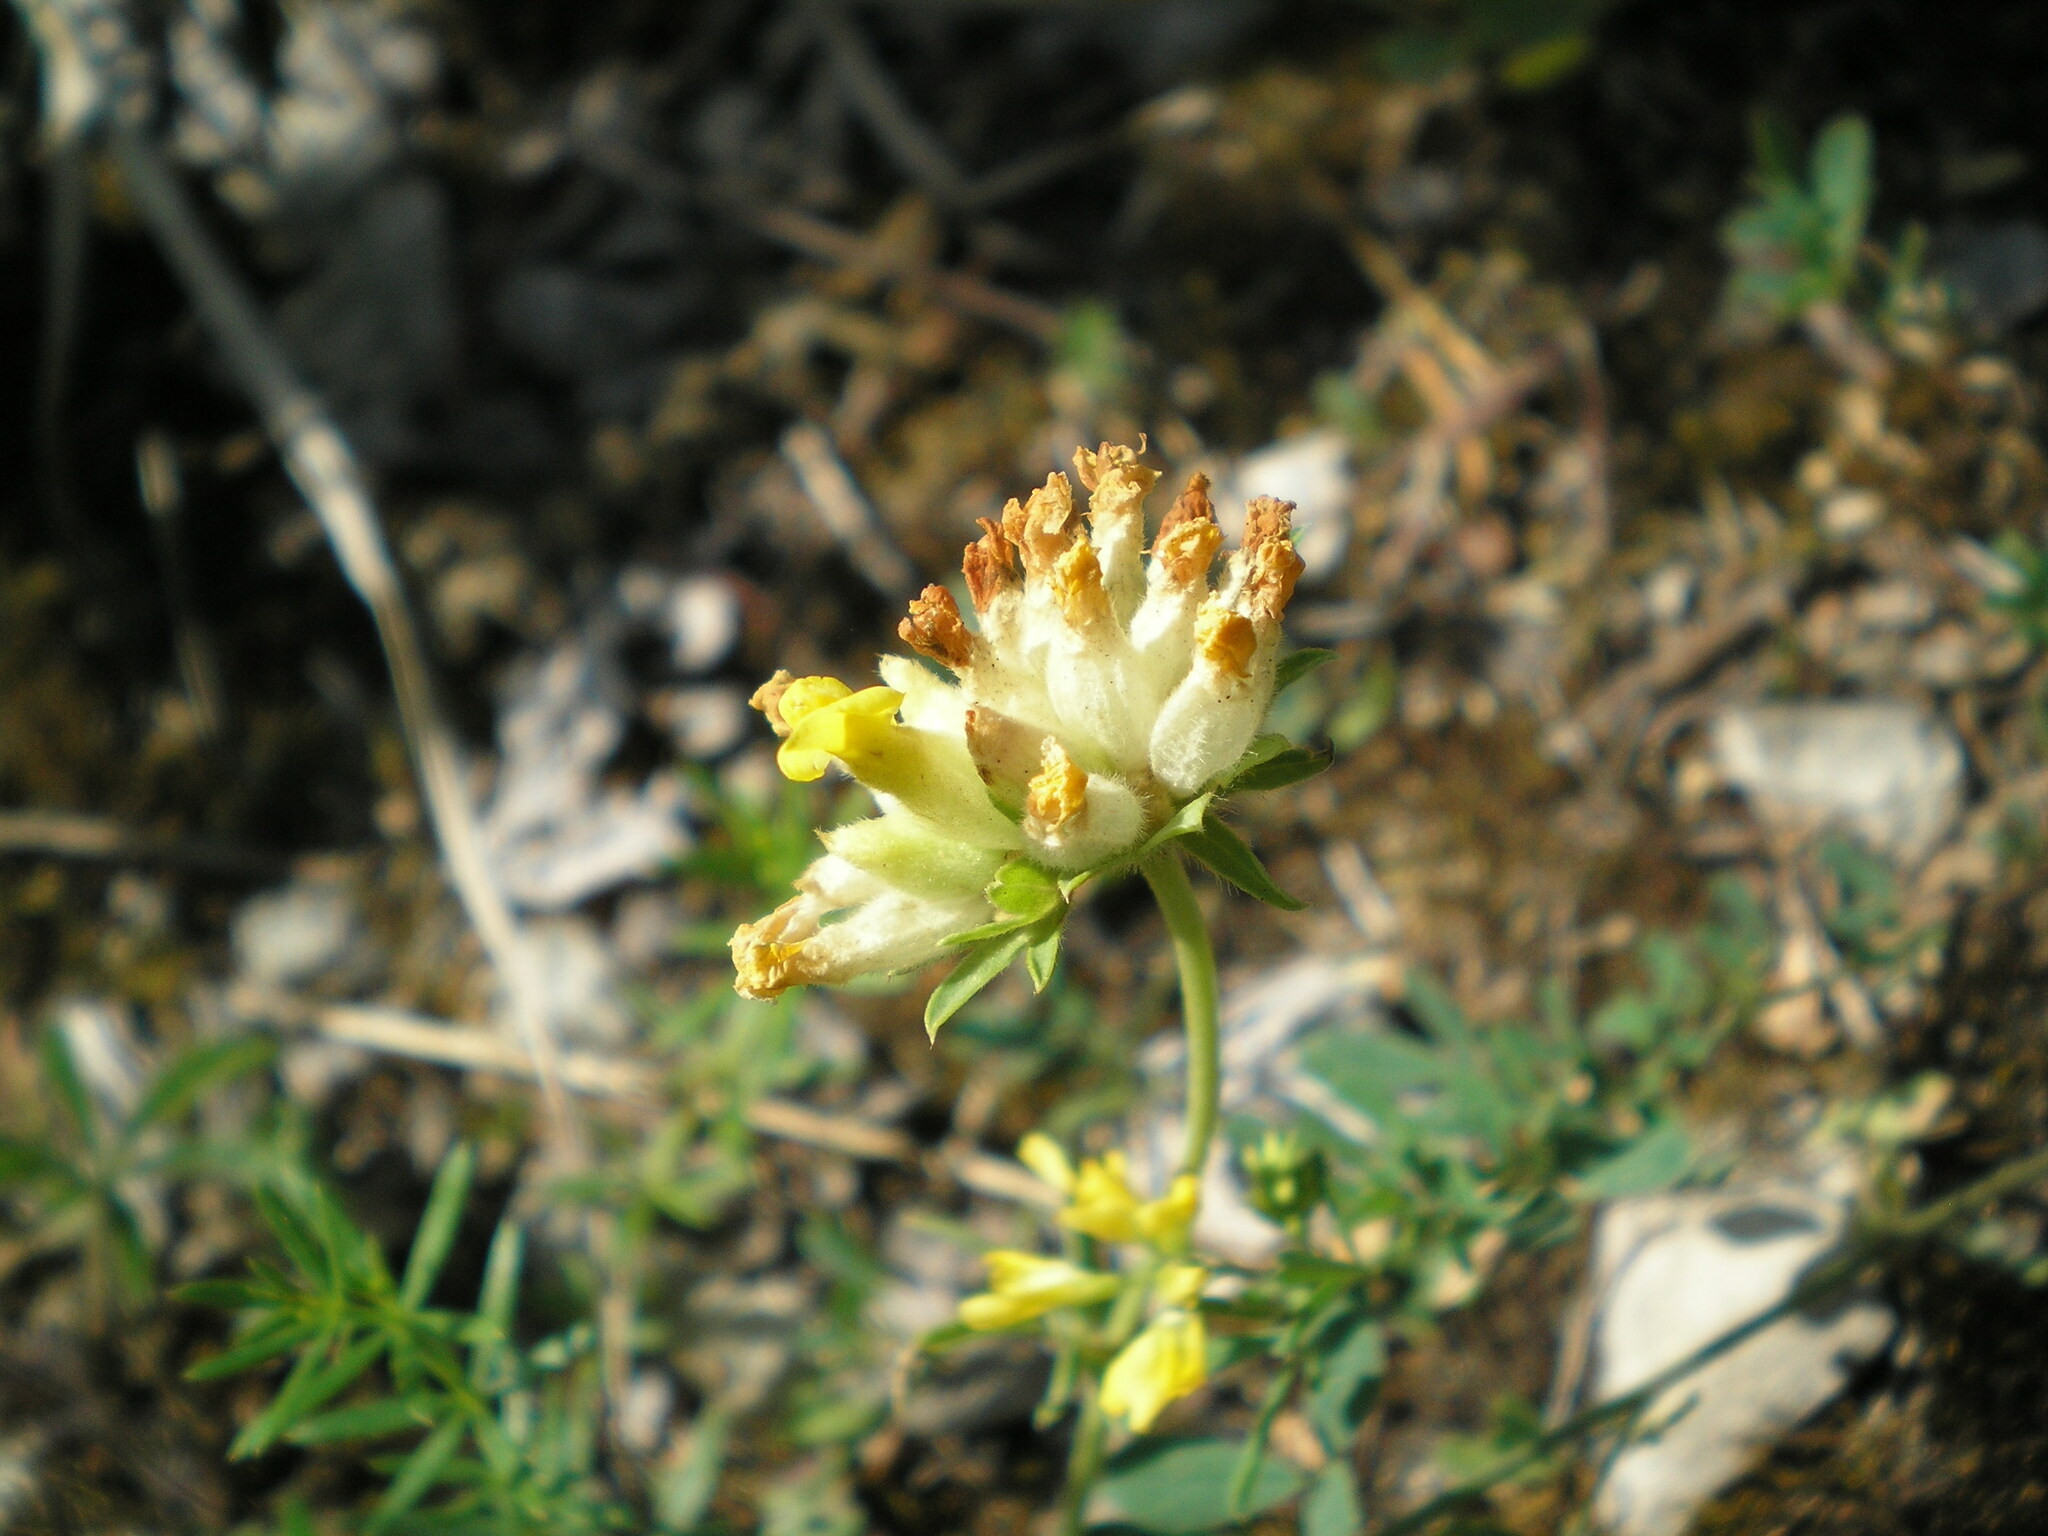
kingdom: Plantae
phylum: Tracheophyta
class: Magnoliopsida
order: Fabales
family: Fabaceae
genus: Anthyllis
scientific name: Anthyllis vulneraria
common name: Kidney vetch
